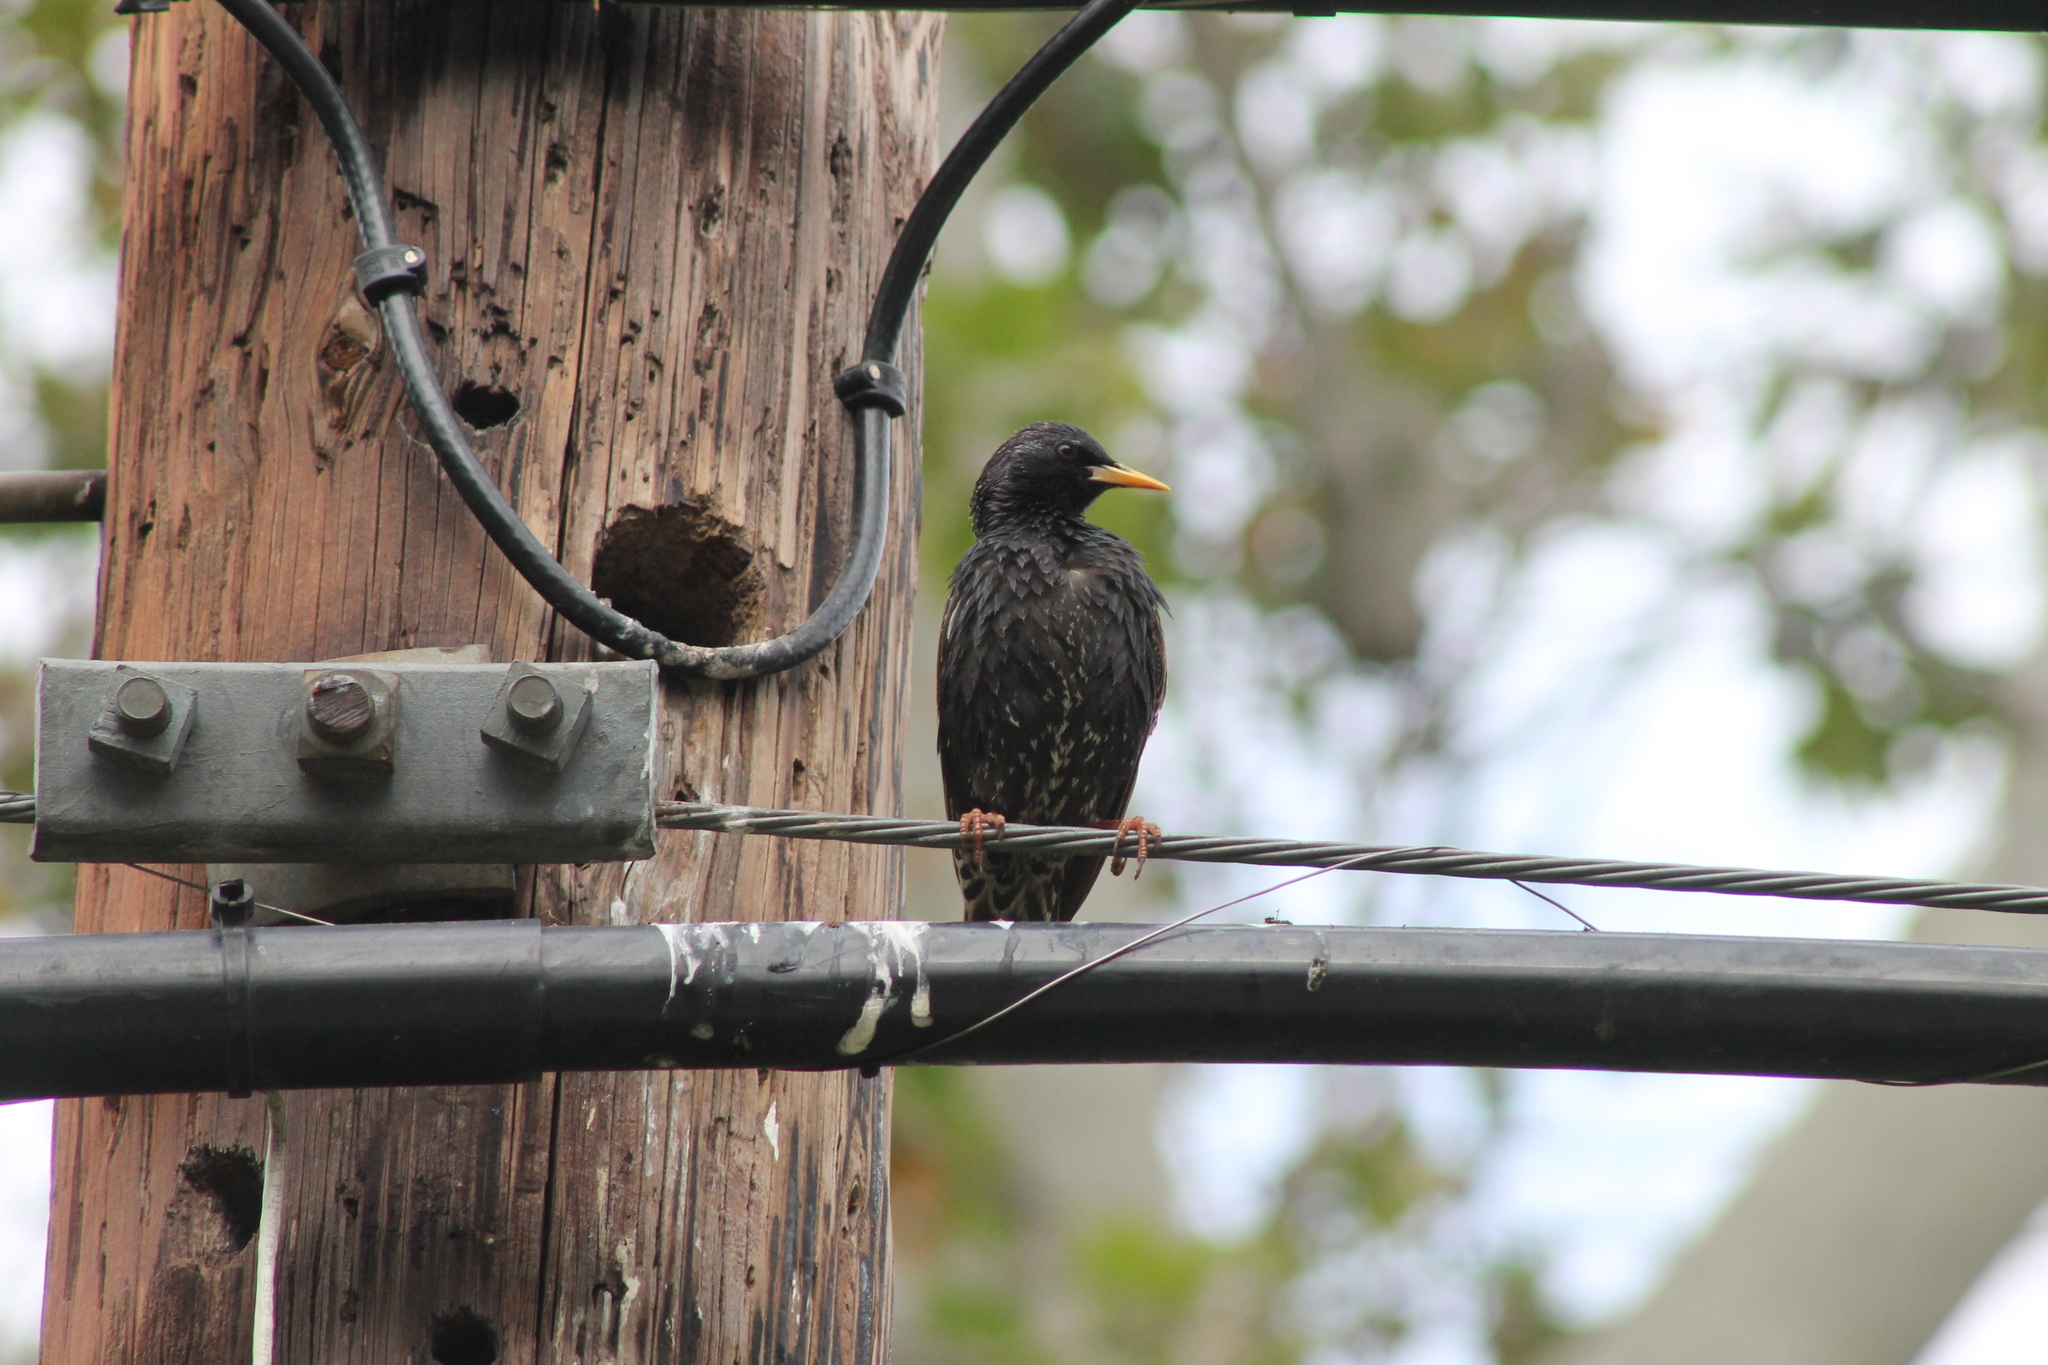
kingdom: Animalia
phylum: Chordata
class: Aves
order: Passeriformes
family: Sturnidae
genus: Sturnus
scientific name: Sturnus vulgaris
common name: Common starling
